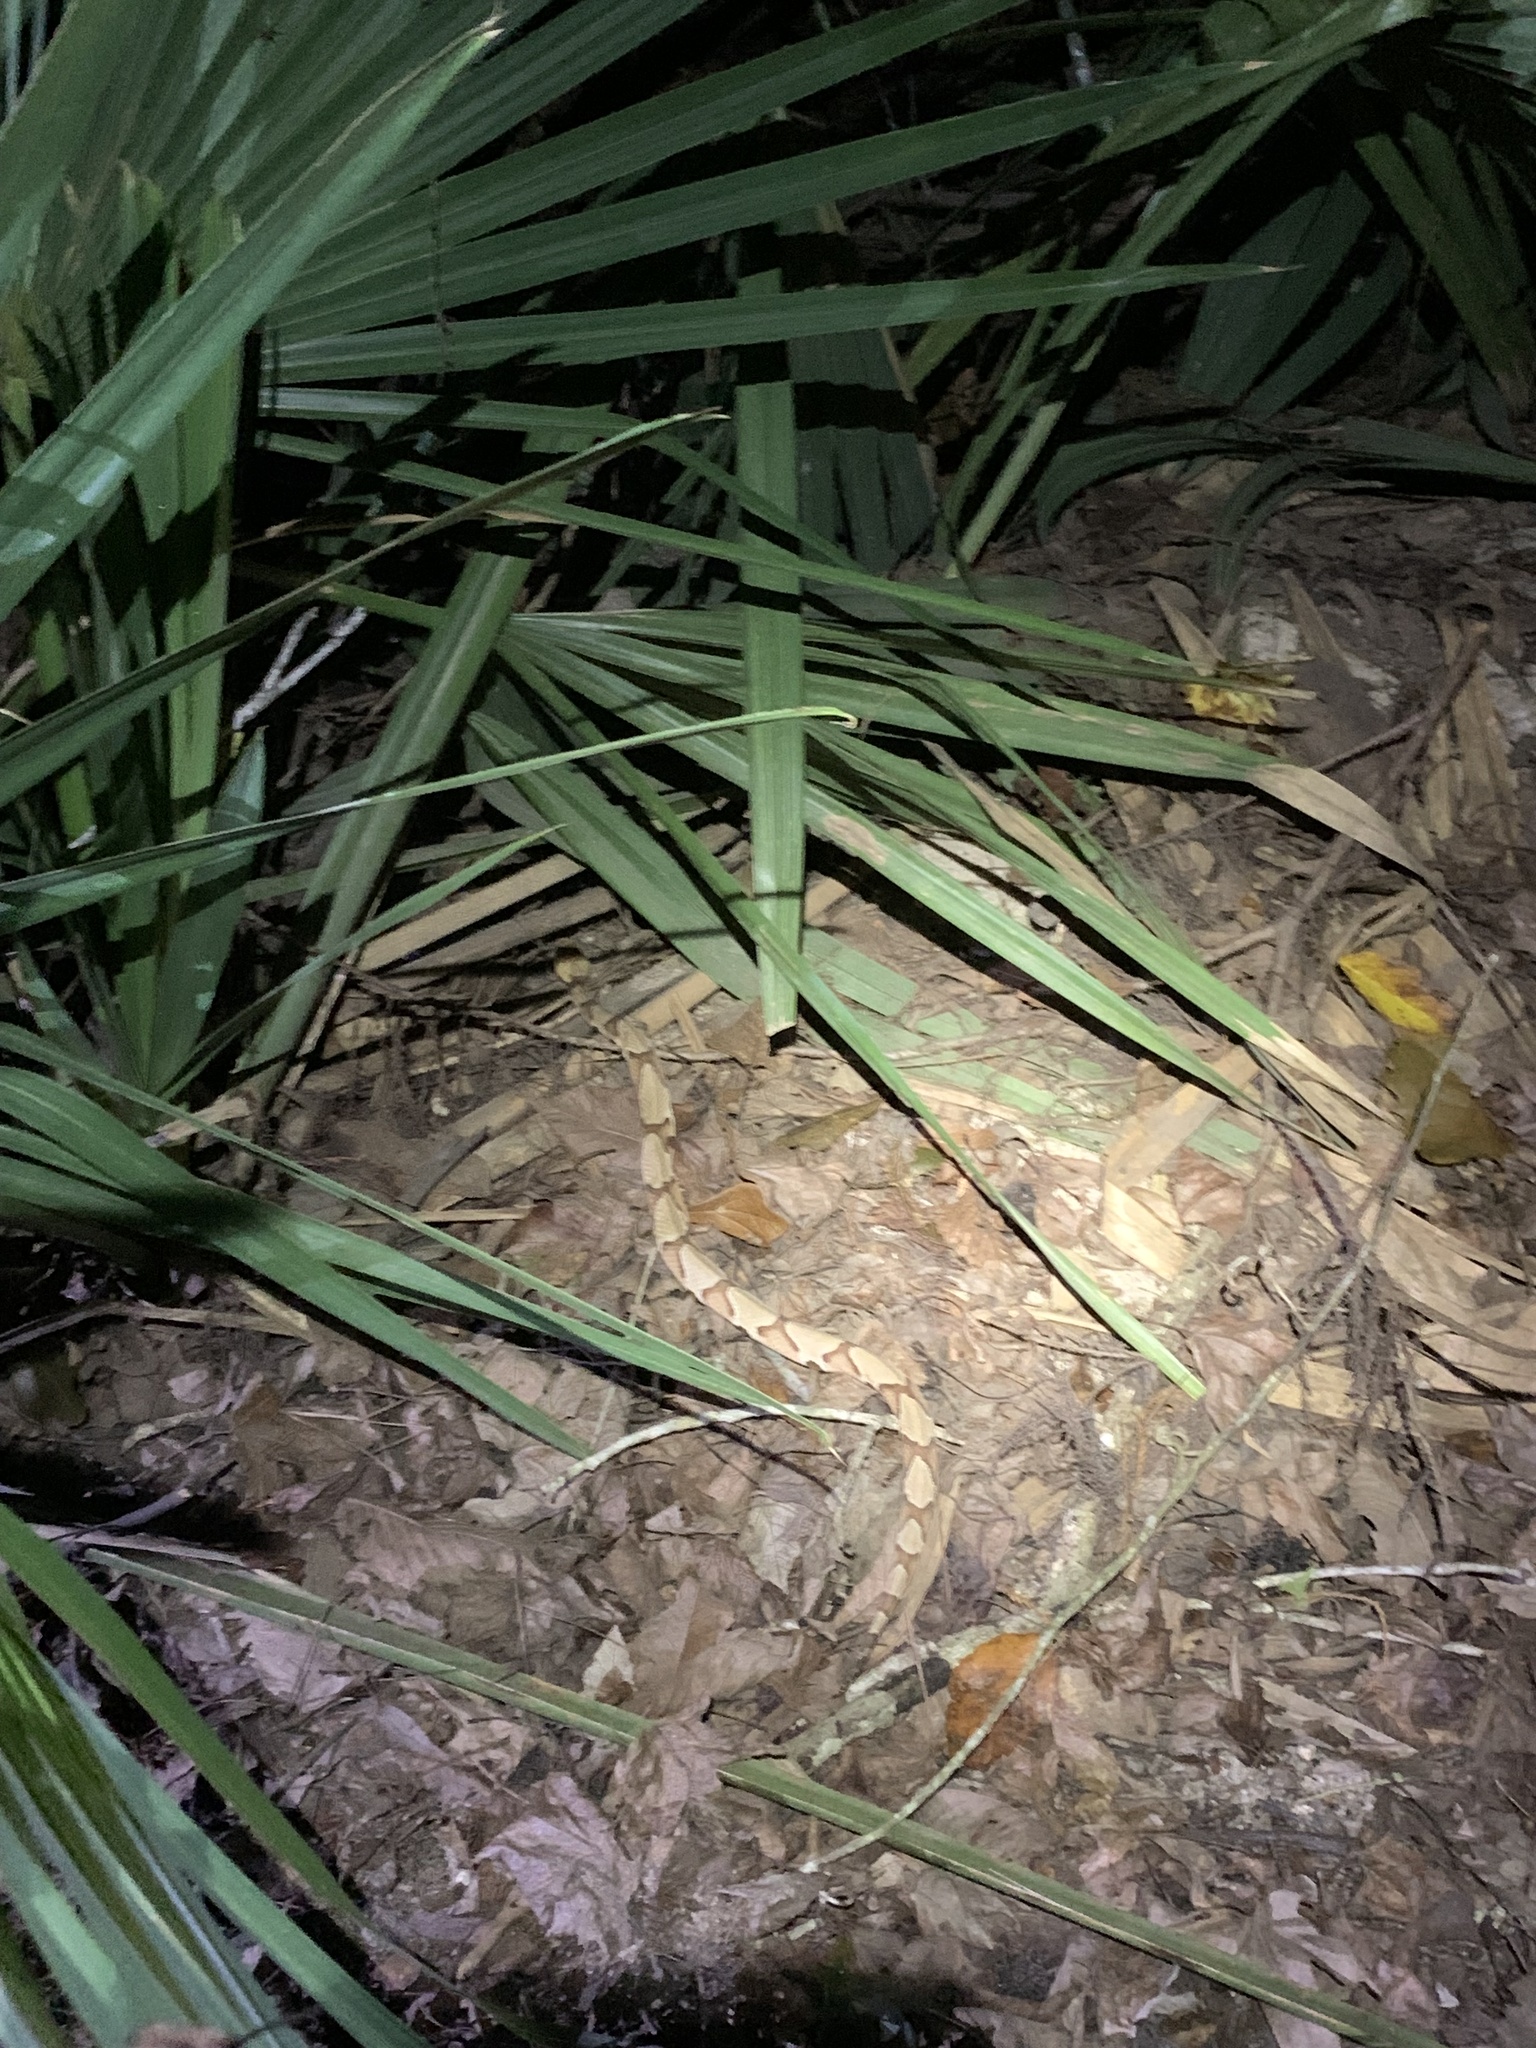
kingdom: Animalia
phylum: Chordata
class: Squamata
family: Viperidae
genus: Agkistrodon
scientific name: Agkistrodon contortrix
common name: Northern copperhead
